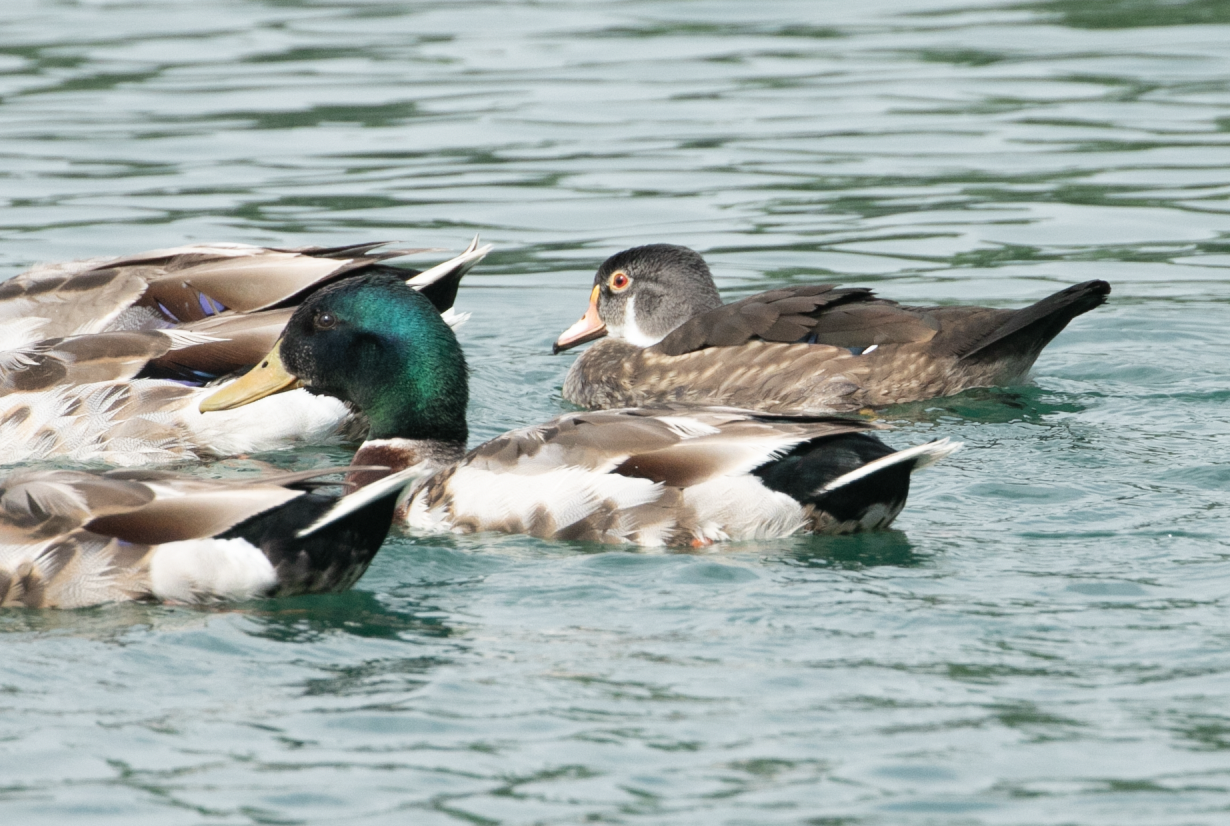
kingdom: Animalia
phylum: Chordata
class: Aves
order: Anseriformes
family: Anatidae
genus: Aix
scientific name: Aix sponsa
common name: Wood duck
